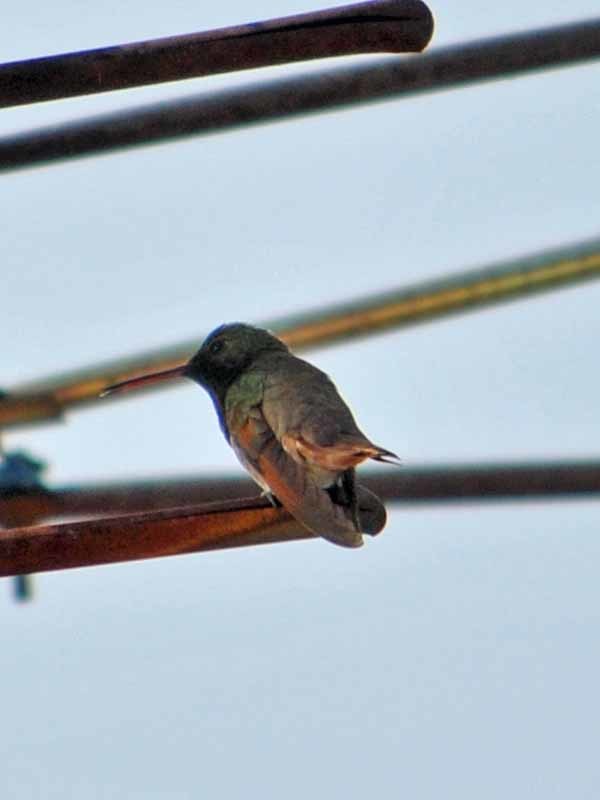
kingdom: Animalia
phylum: Chordata
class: Aves
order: Apodiformes
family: Trochilidae
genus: Saucerottia
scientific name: Saucerottia beryllina
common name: Berylline hummingbird
